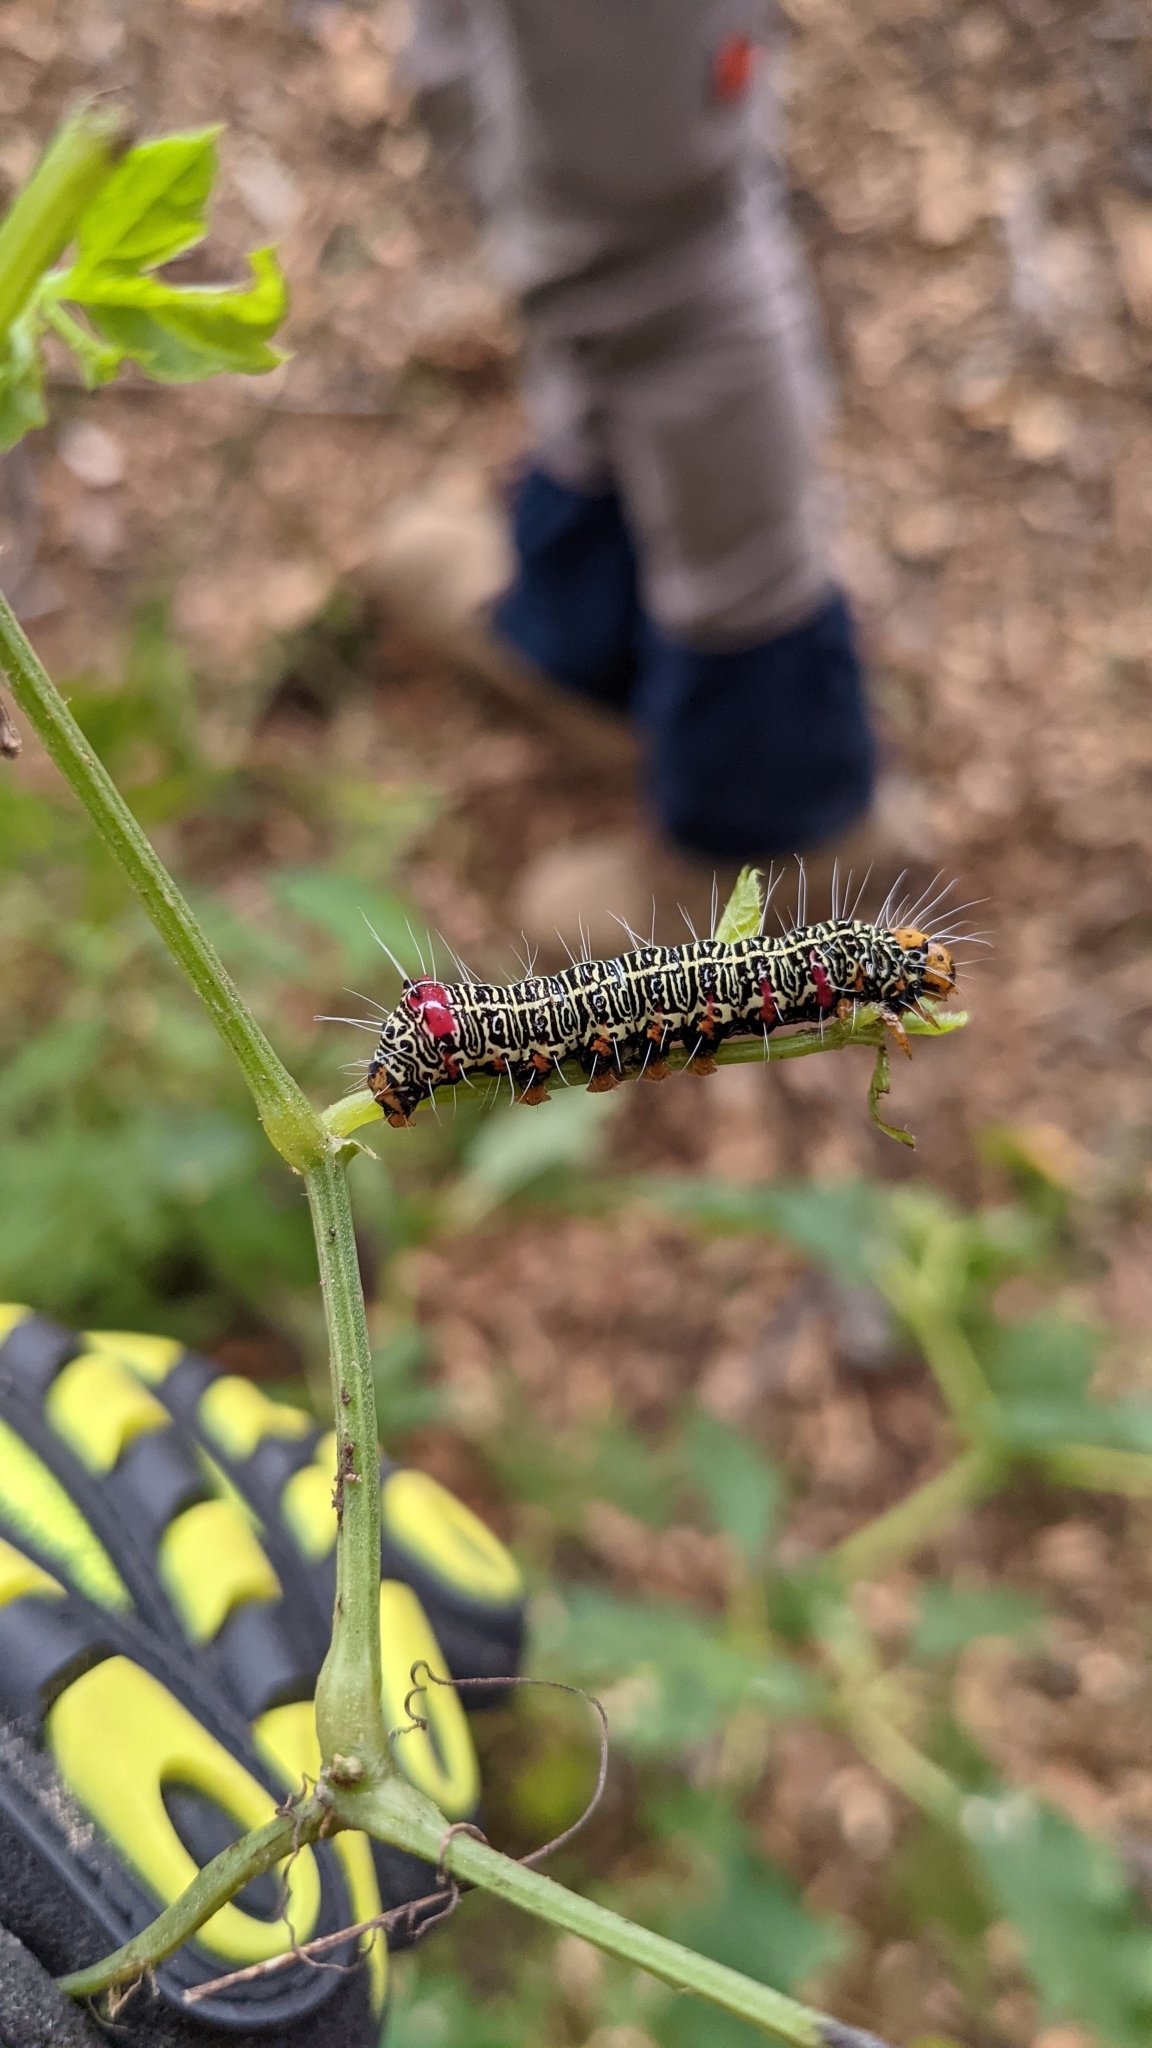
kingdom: Animalia
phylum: Arthropoda
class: Insecta
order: Lepidoptera
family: Noctuidae
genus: Phalaenoides
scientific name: Phalaenoides glycinae
